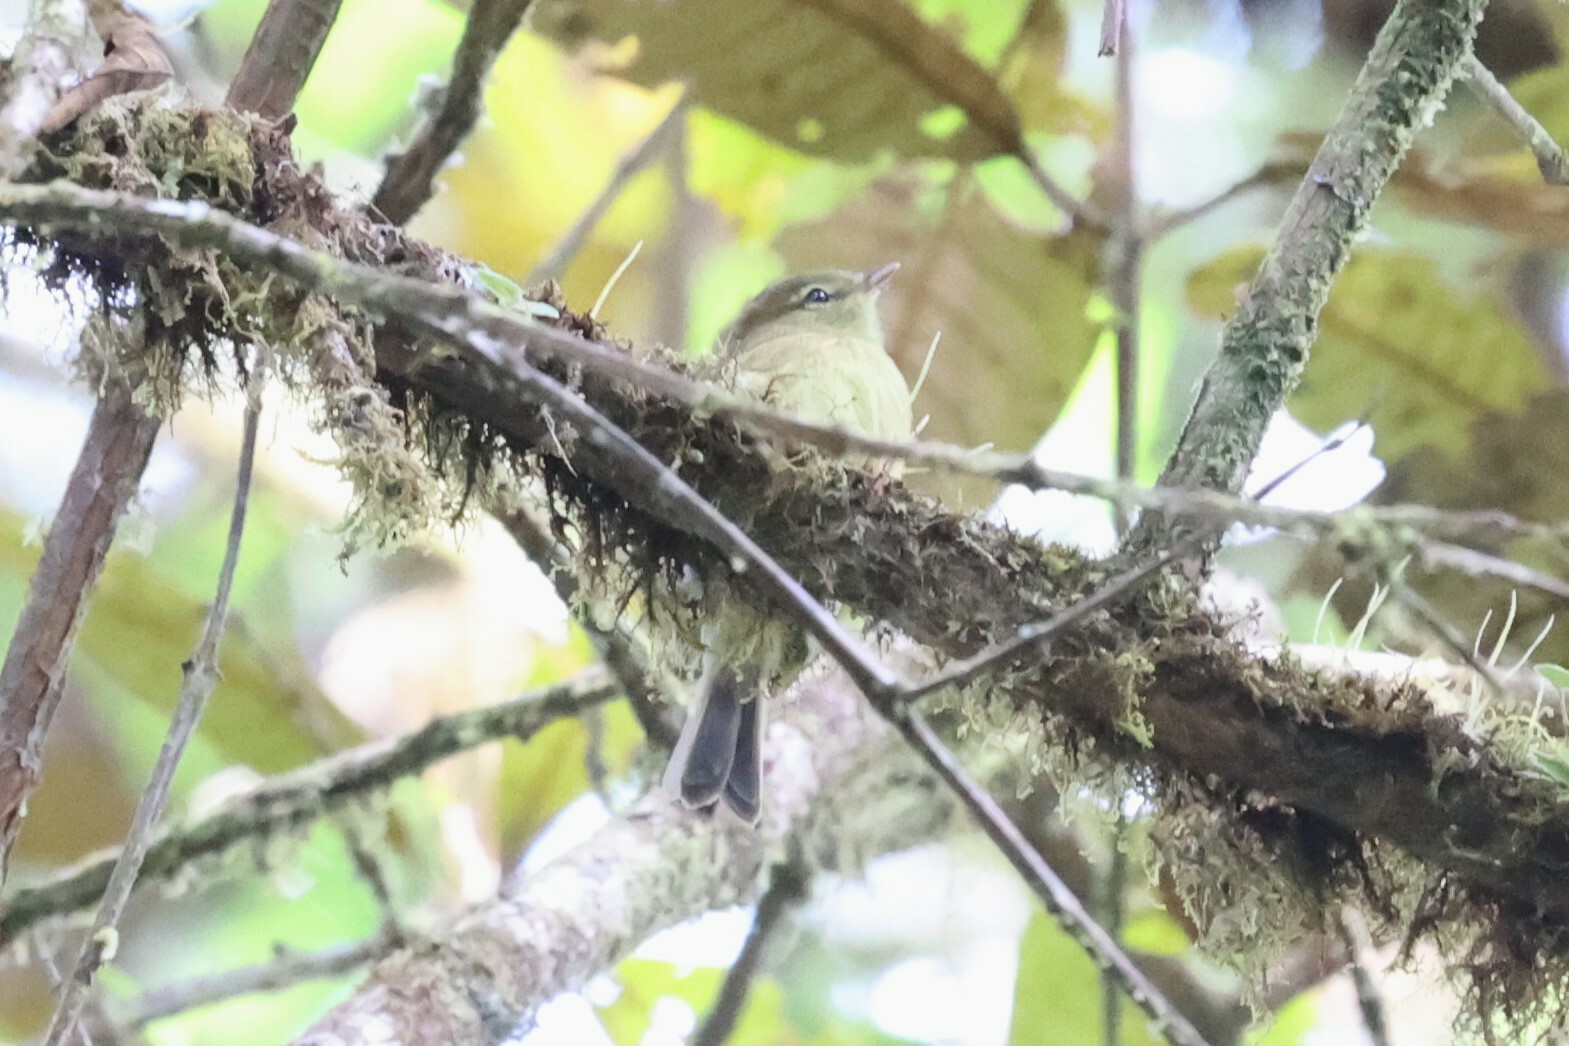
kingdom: Animalia
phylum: Chordata
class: Aves
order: Passeriformes
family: Tyrannidae
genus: Myiophobus
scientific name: Myiophobus flavicans
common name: Flavescent flycatcher
